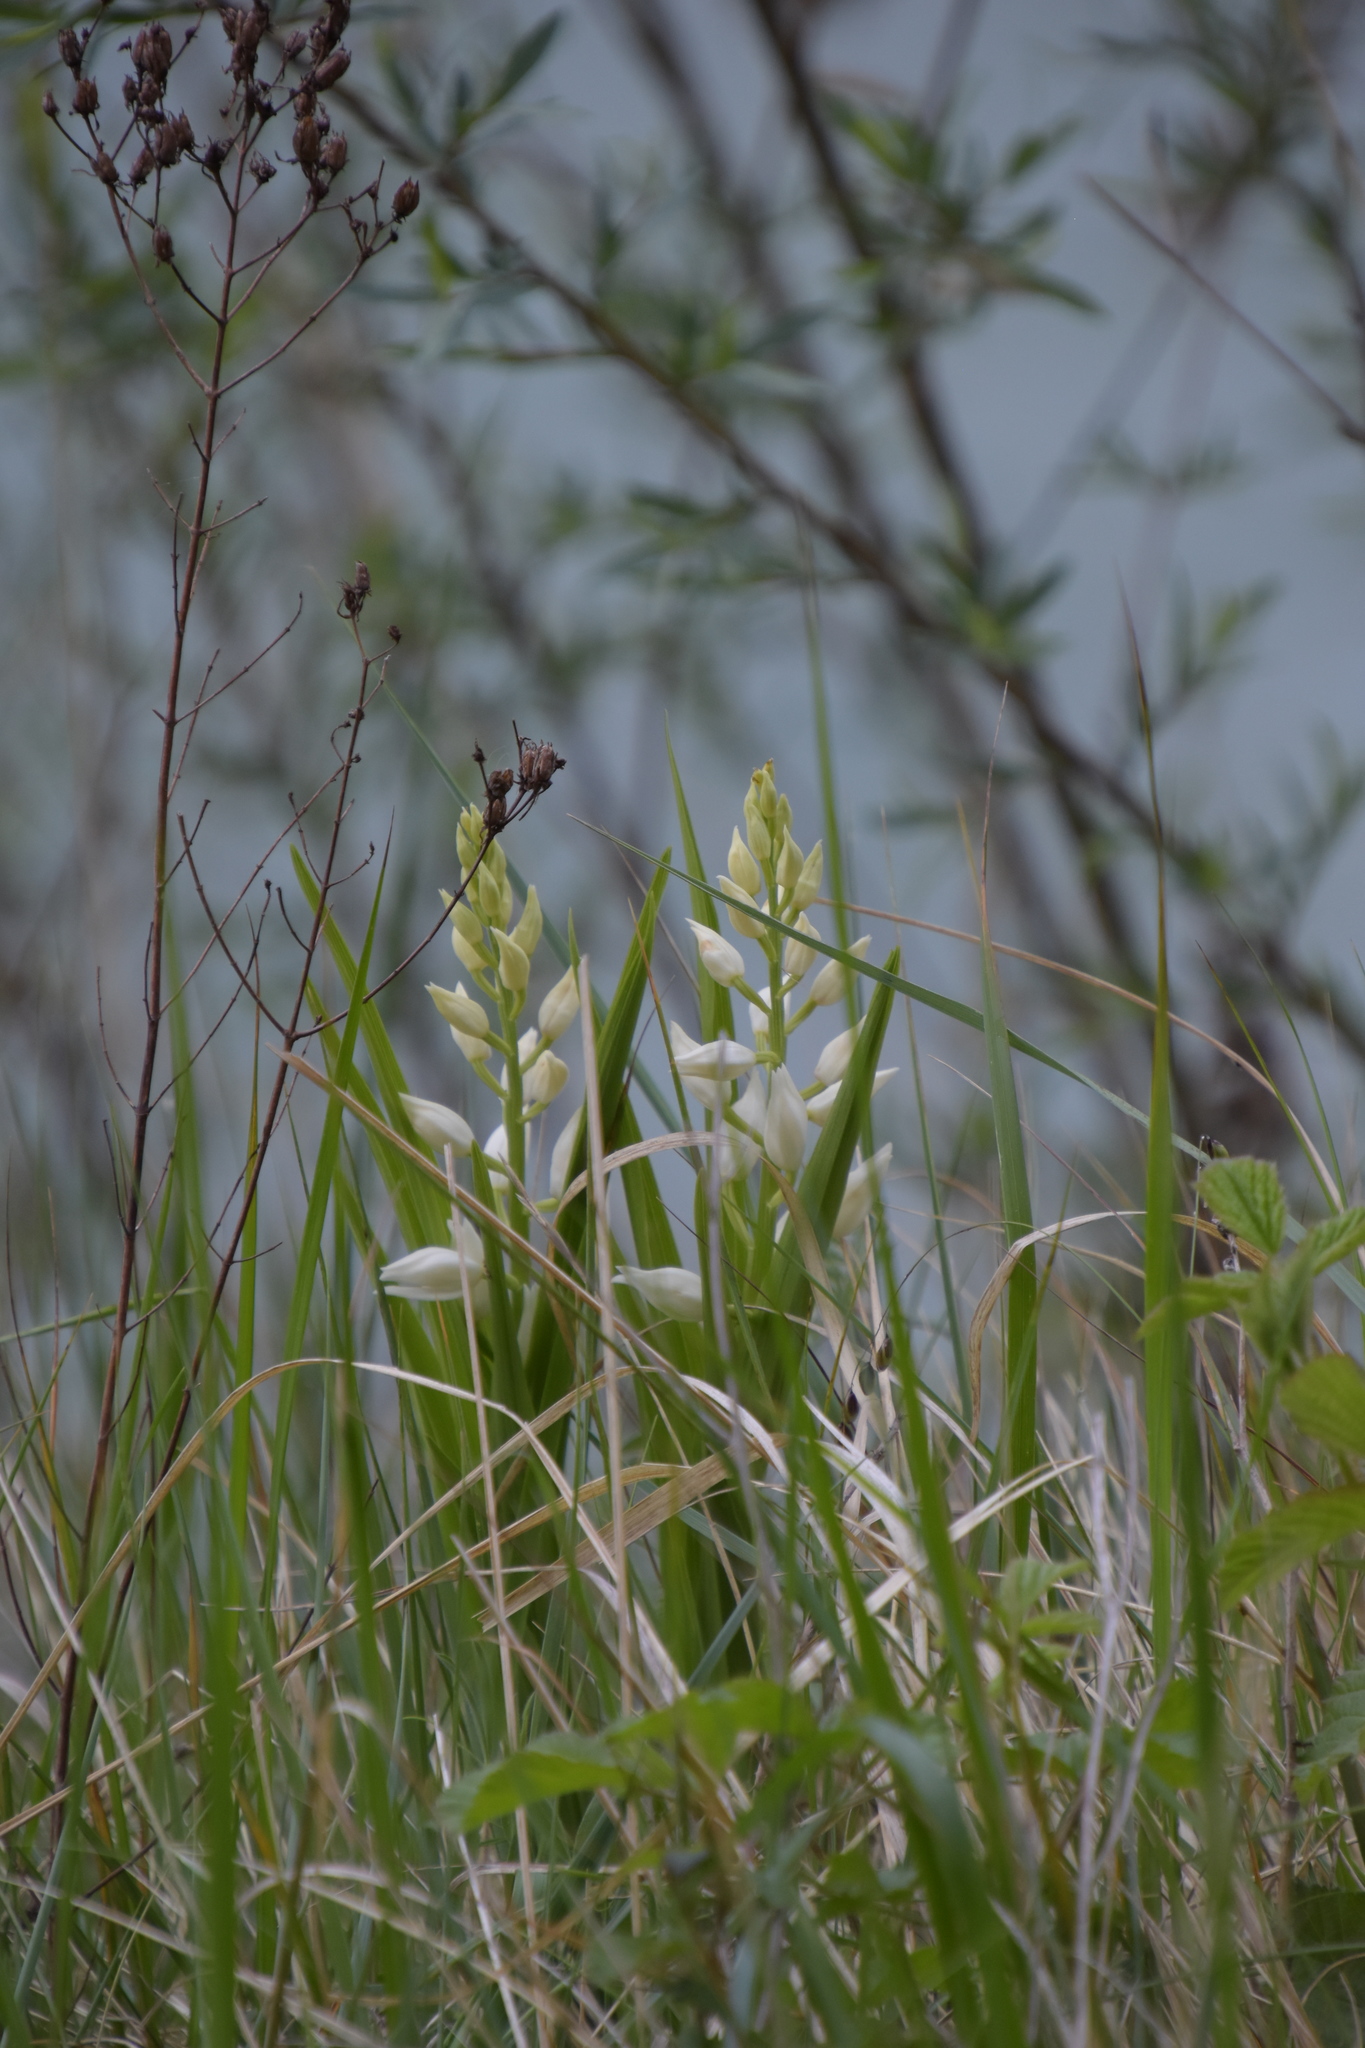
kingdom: Plantae
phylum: Tracheophyta
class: Liliopsida
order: Asparagales
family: Orchidaceae
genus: Cephalanthera
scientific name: Cephalanthera longifolia
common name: Narrow-leaved helleborine
